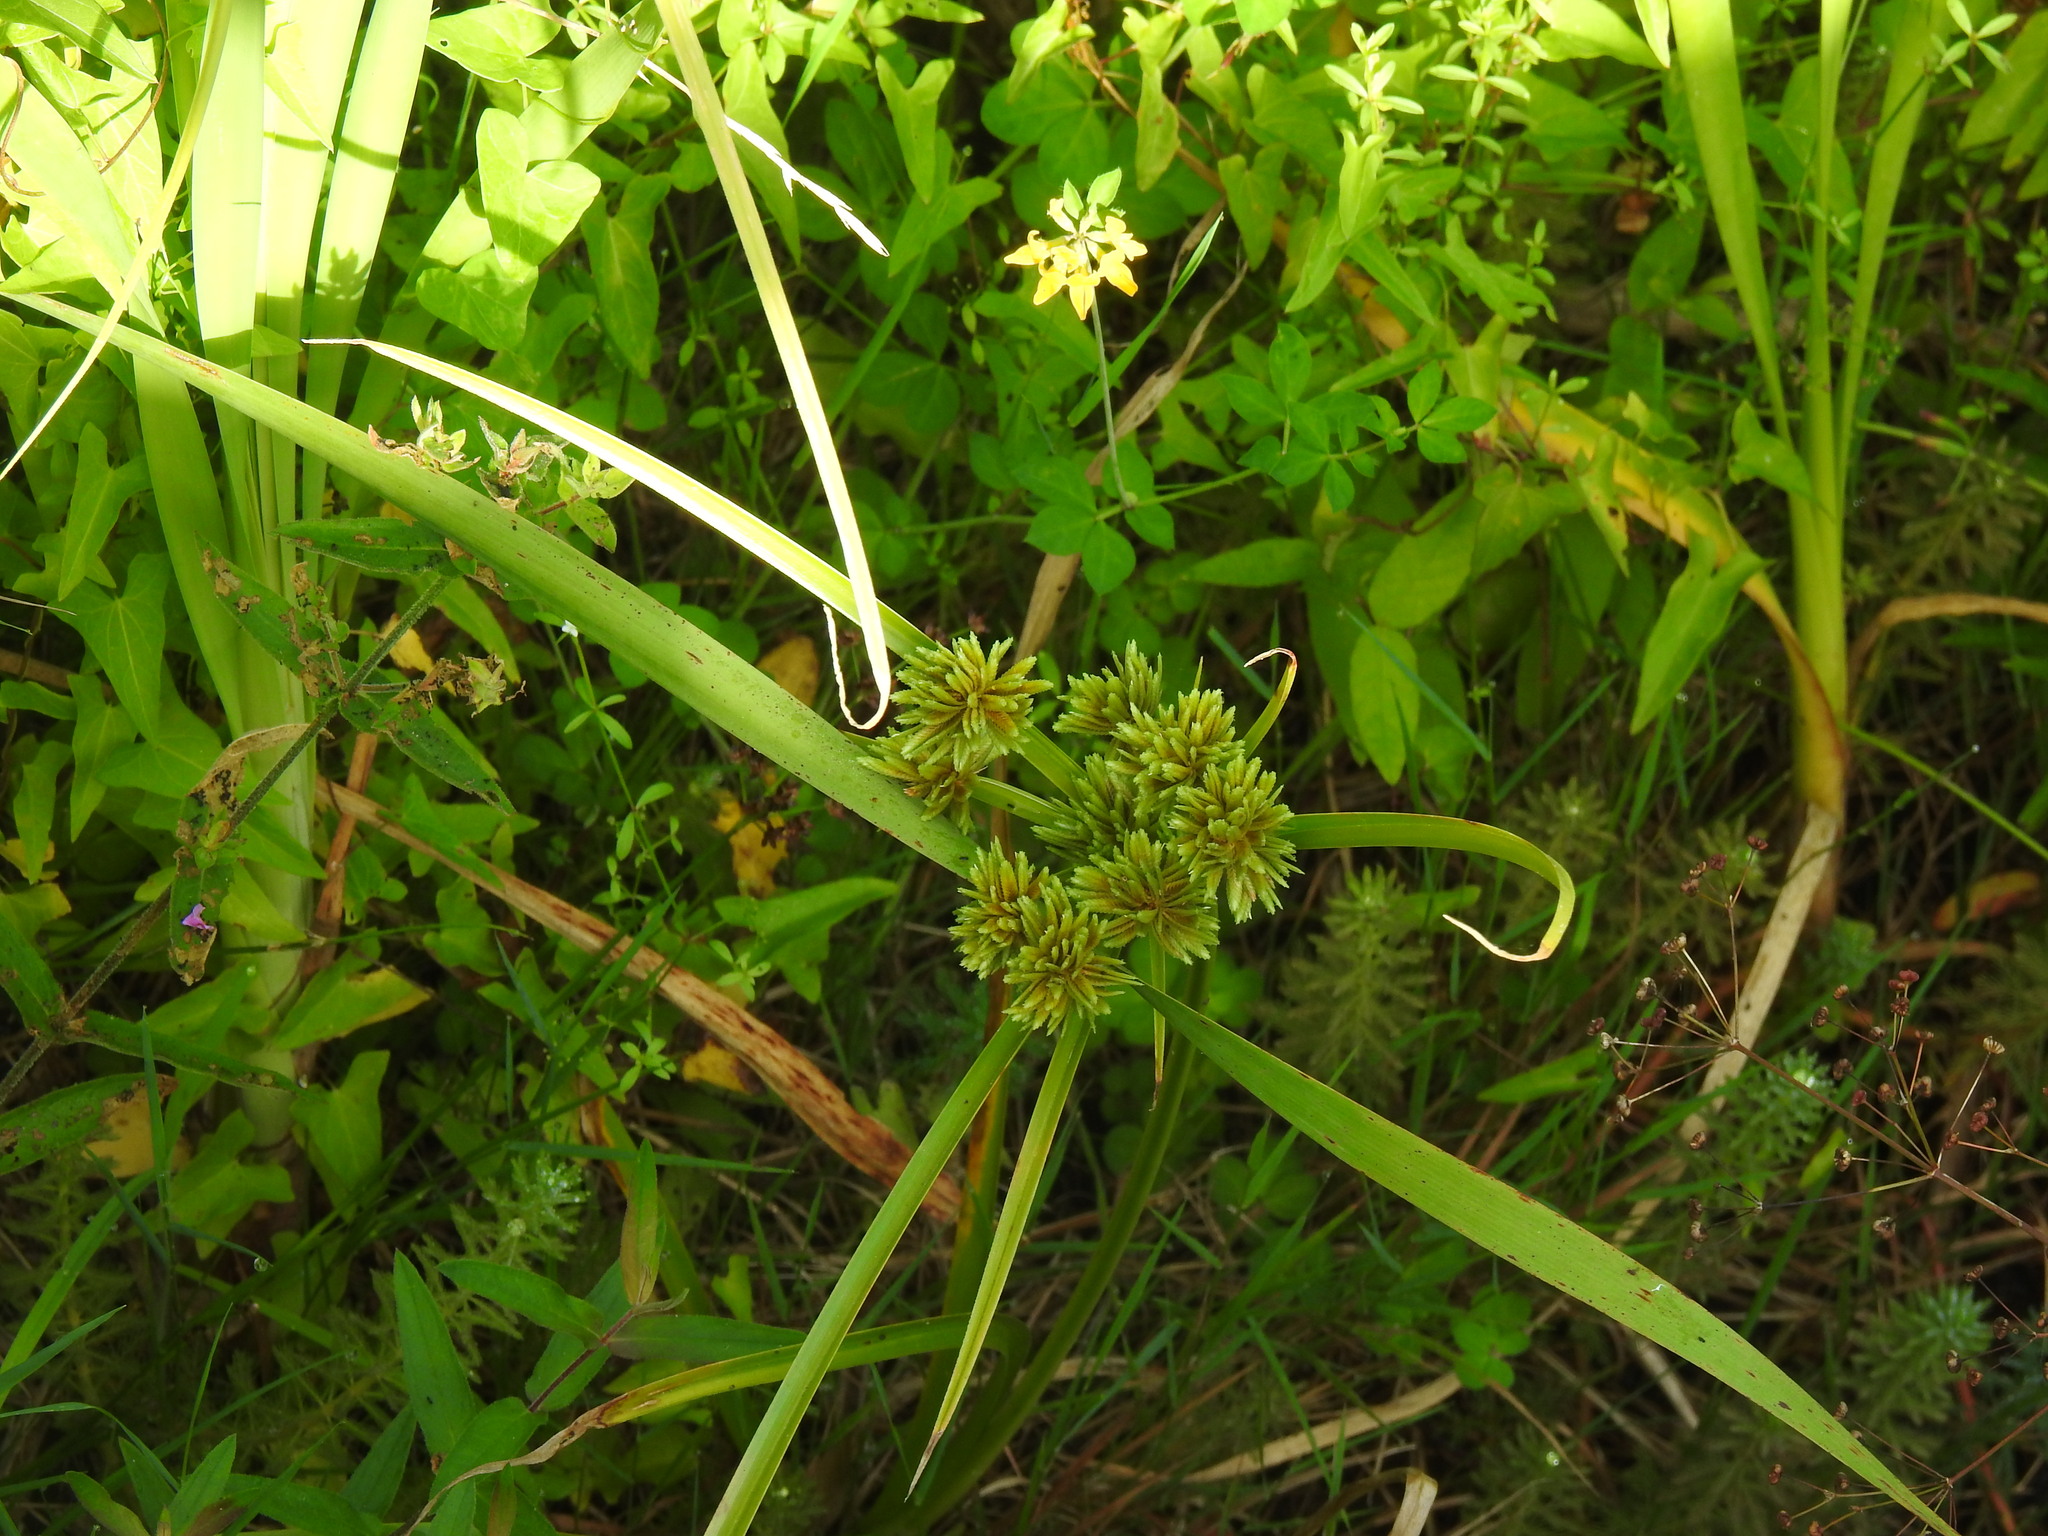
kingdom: Plantae
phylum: Tracheophyta
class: Liliopsida
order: Poales
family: Cyperaceae
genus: Cyperus
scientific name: Cyperus eragrostis
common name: Tall flatsedge
